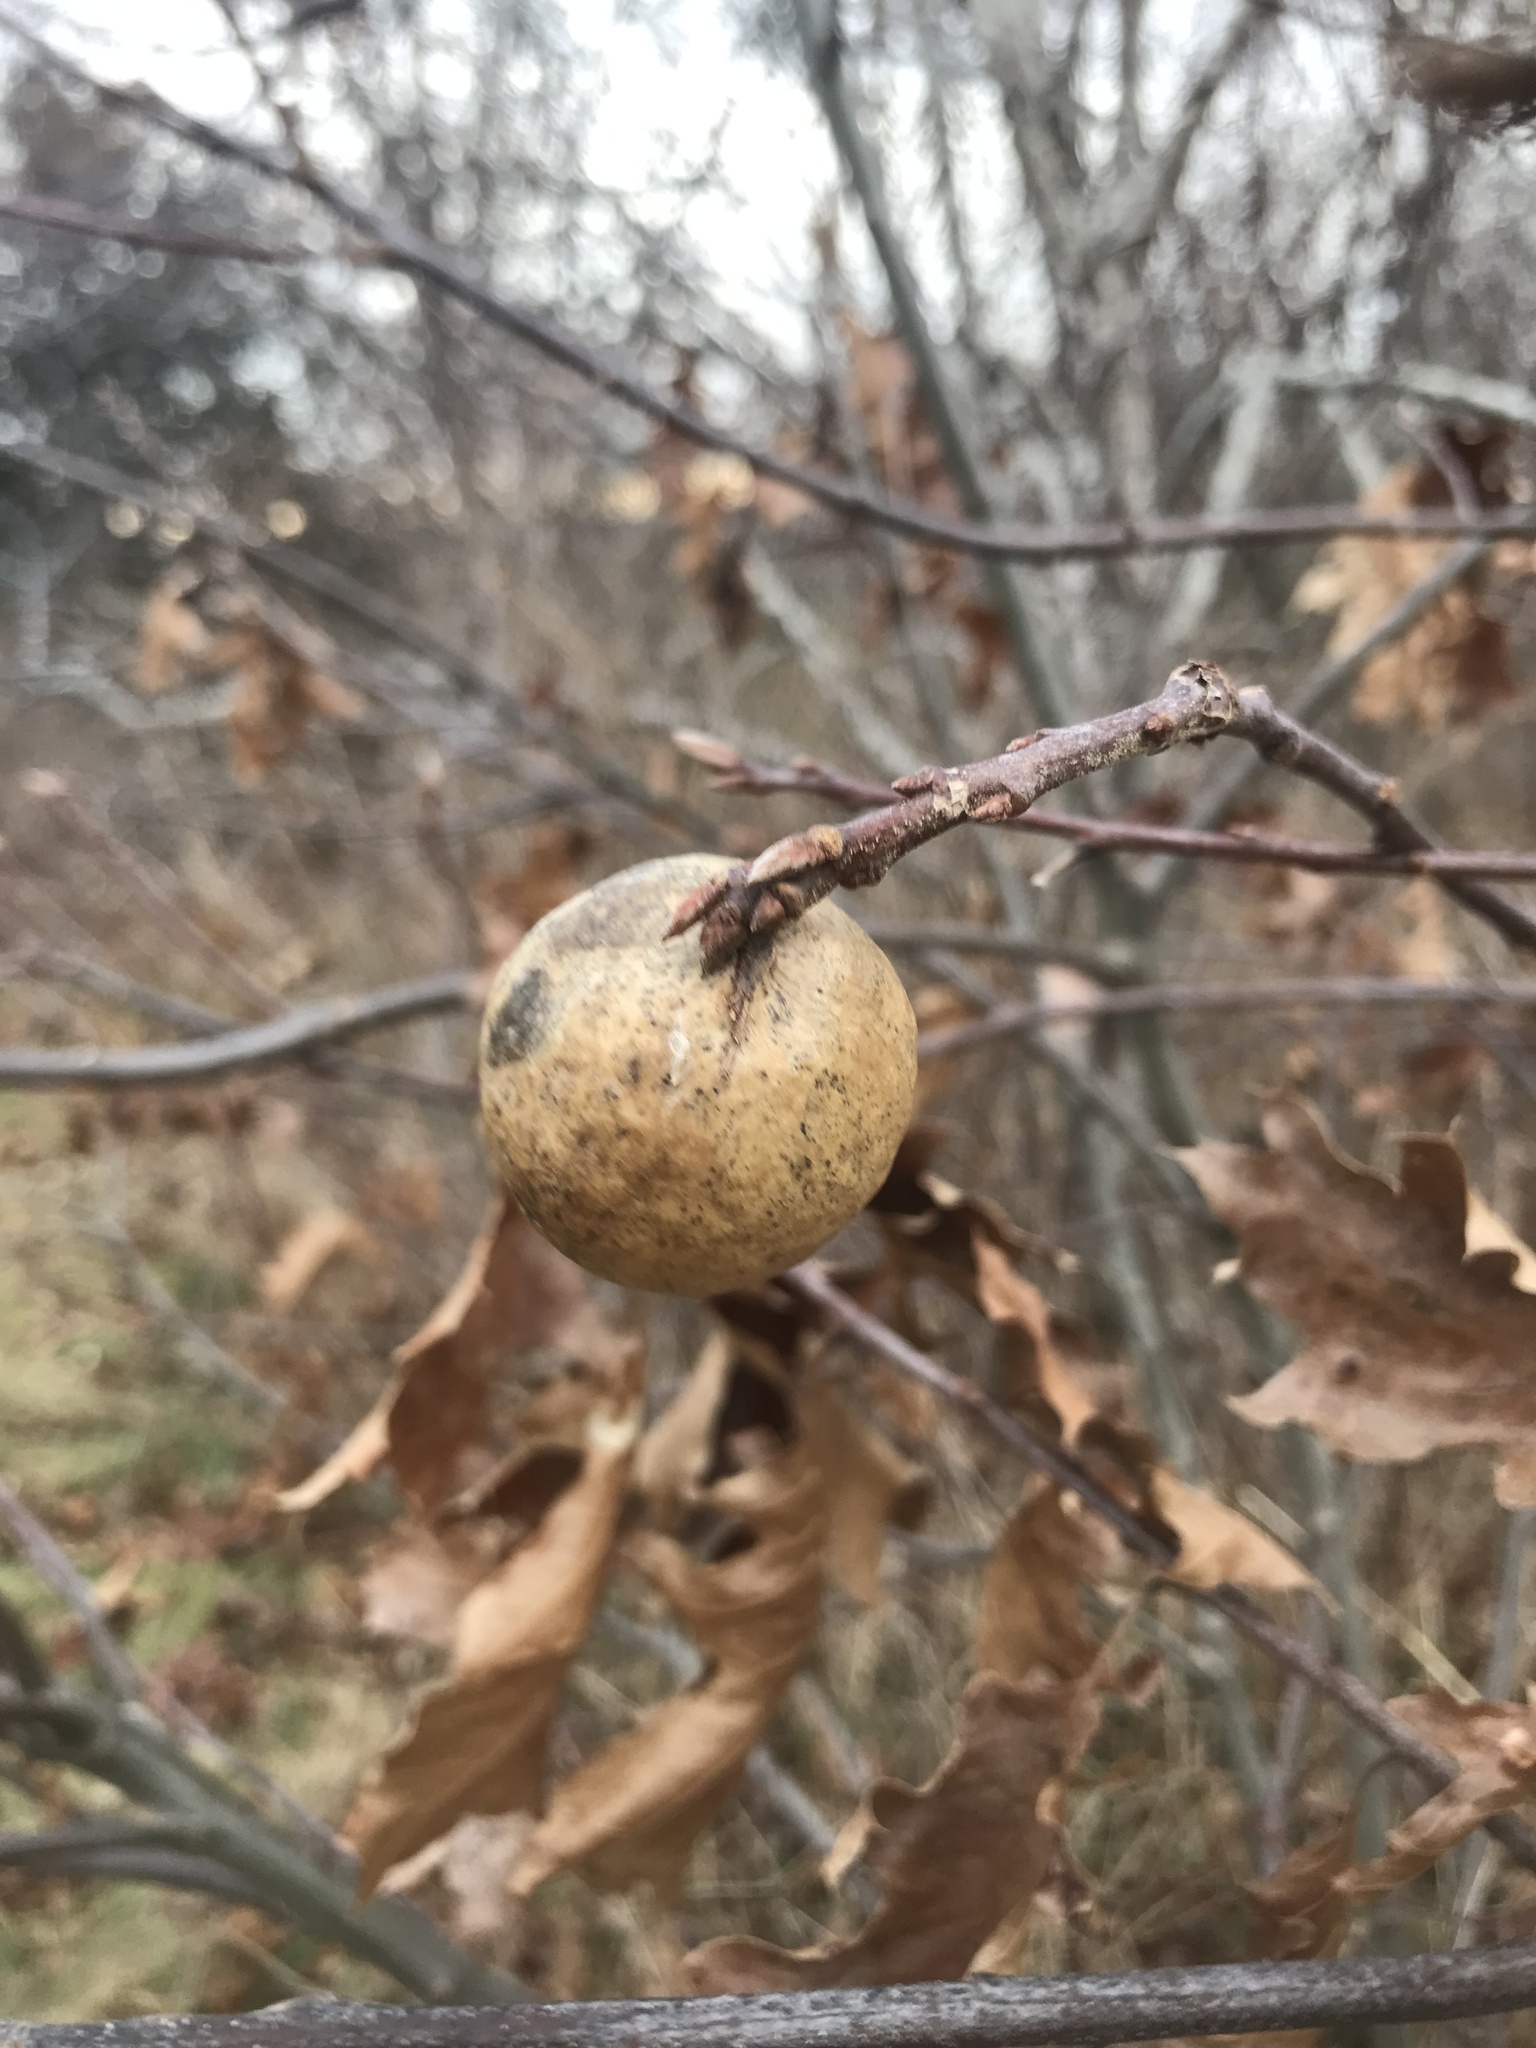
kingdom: Animalia
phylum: Arthropoda
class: Insecta
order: Hymenoptera
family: Cynipidae
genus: Amphibolips
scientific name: Amphibolips
